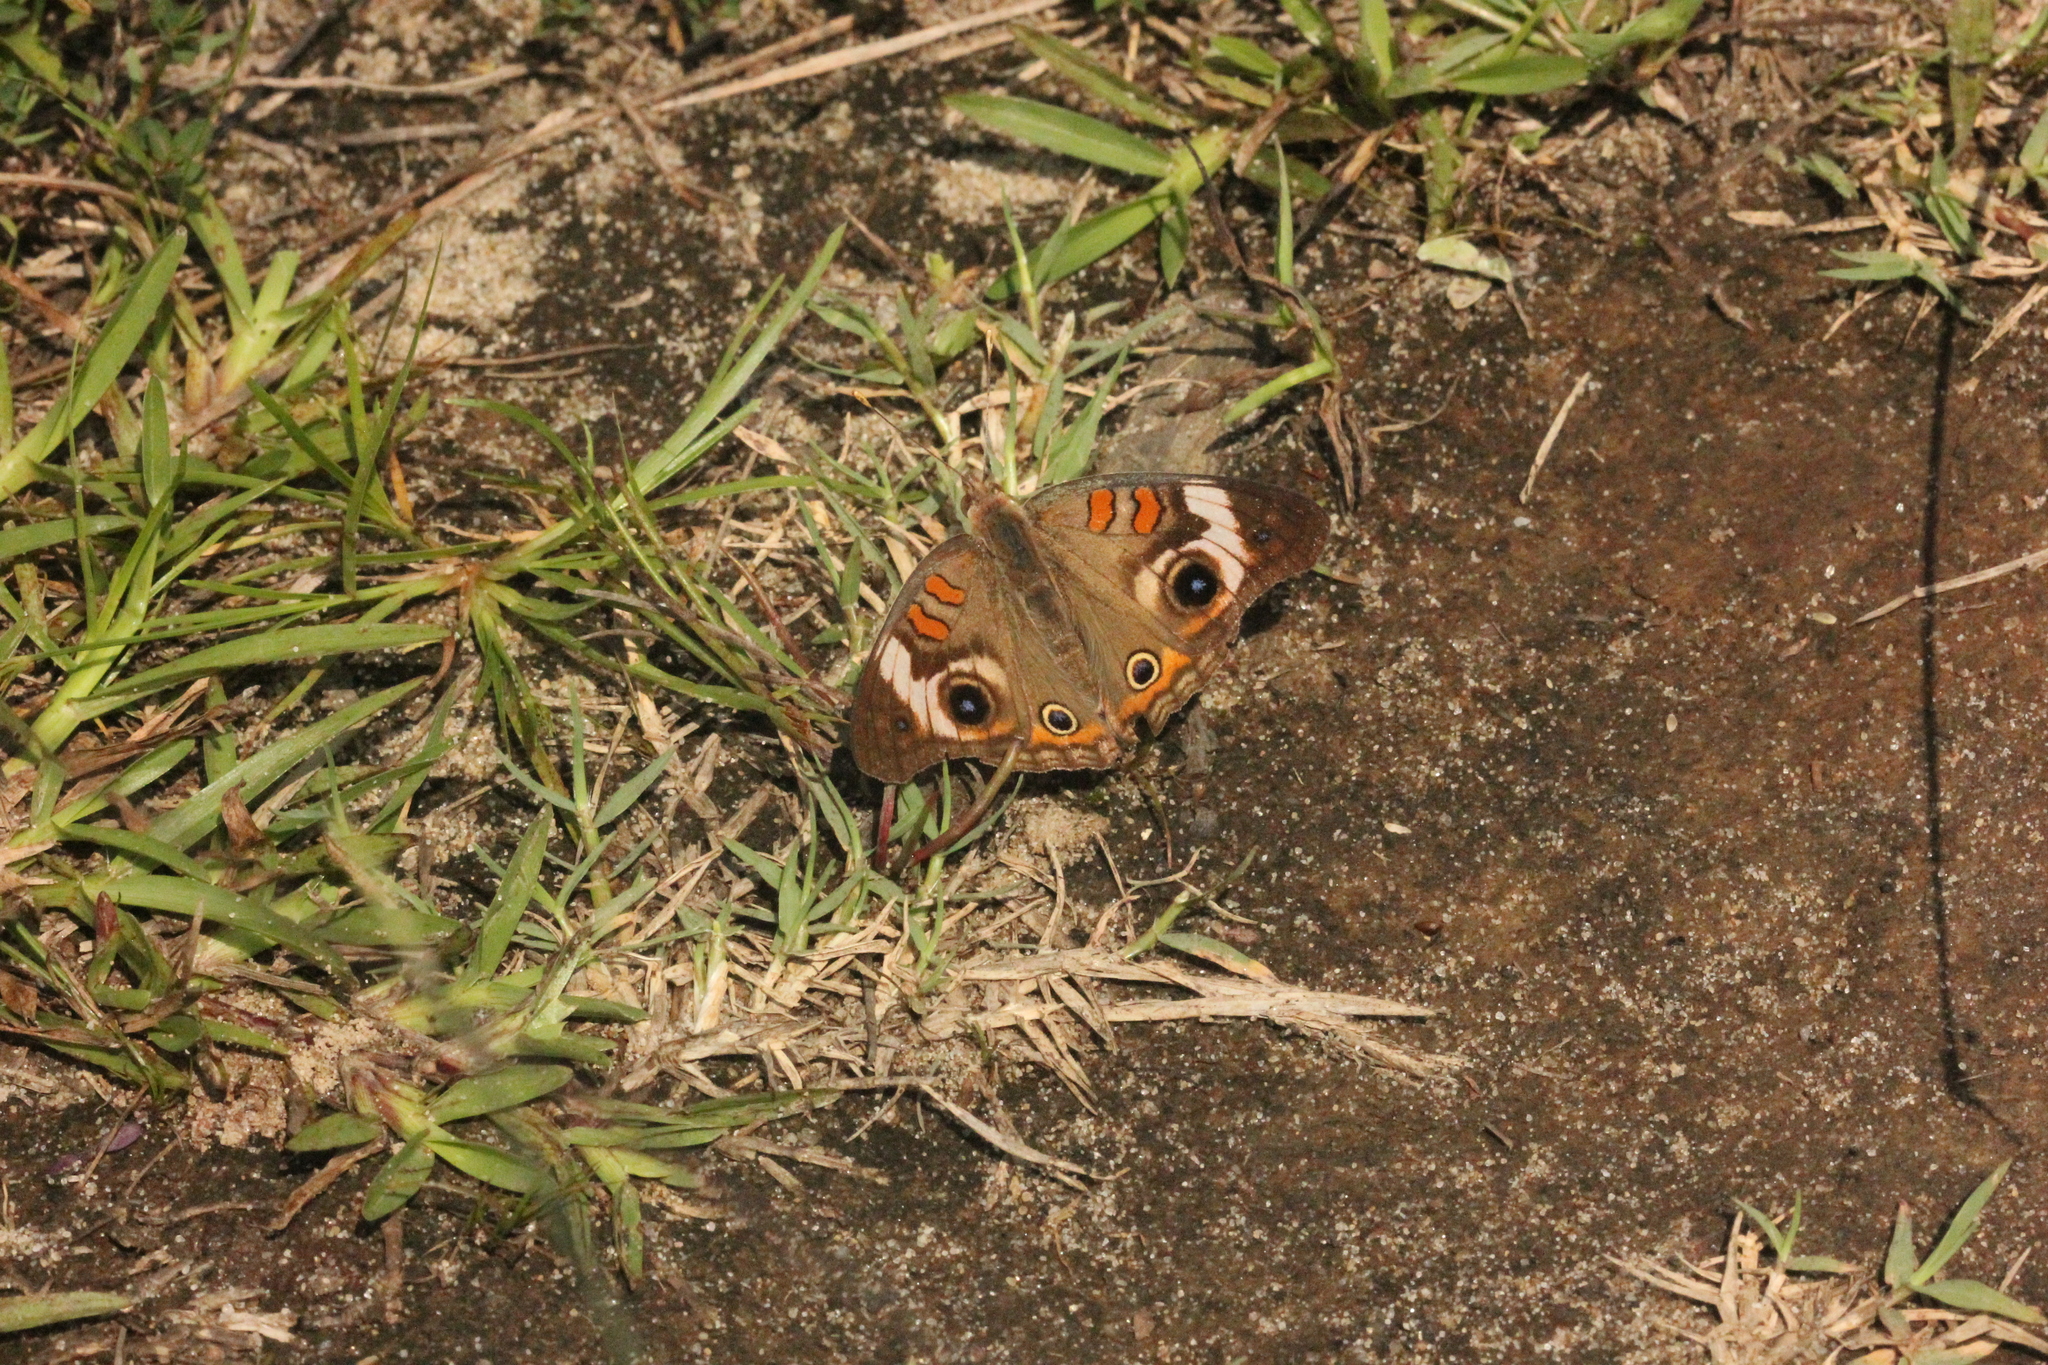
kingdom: Animalia
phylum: Arthropoda
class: Insecta
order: Lepidoptera
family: Nymphalidae
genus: Junonia
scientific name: Junonia coenia
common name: Common buckeye
